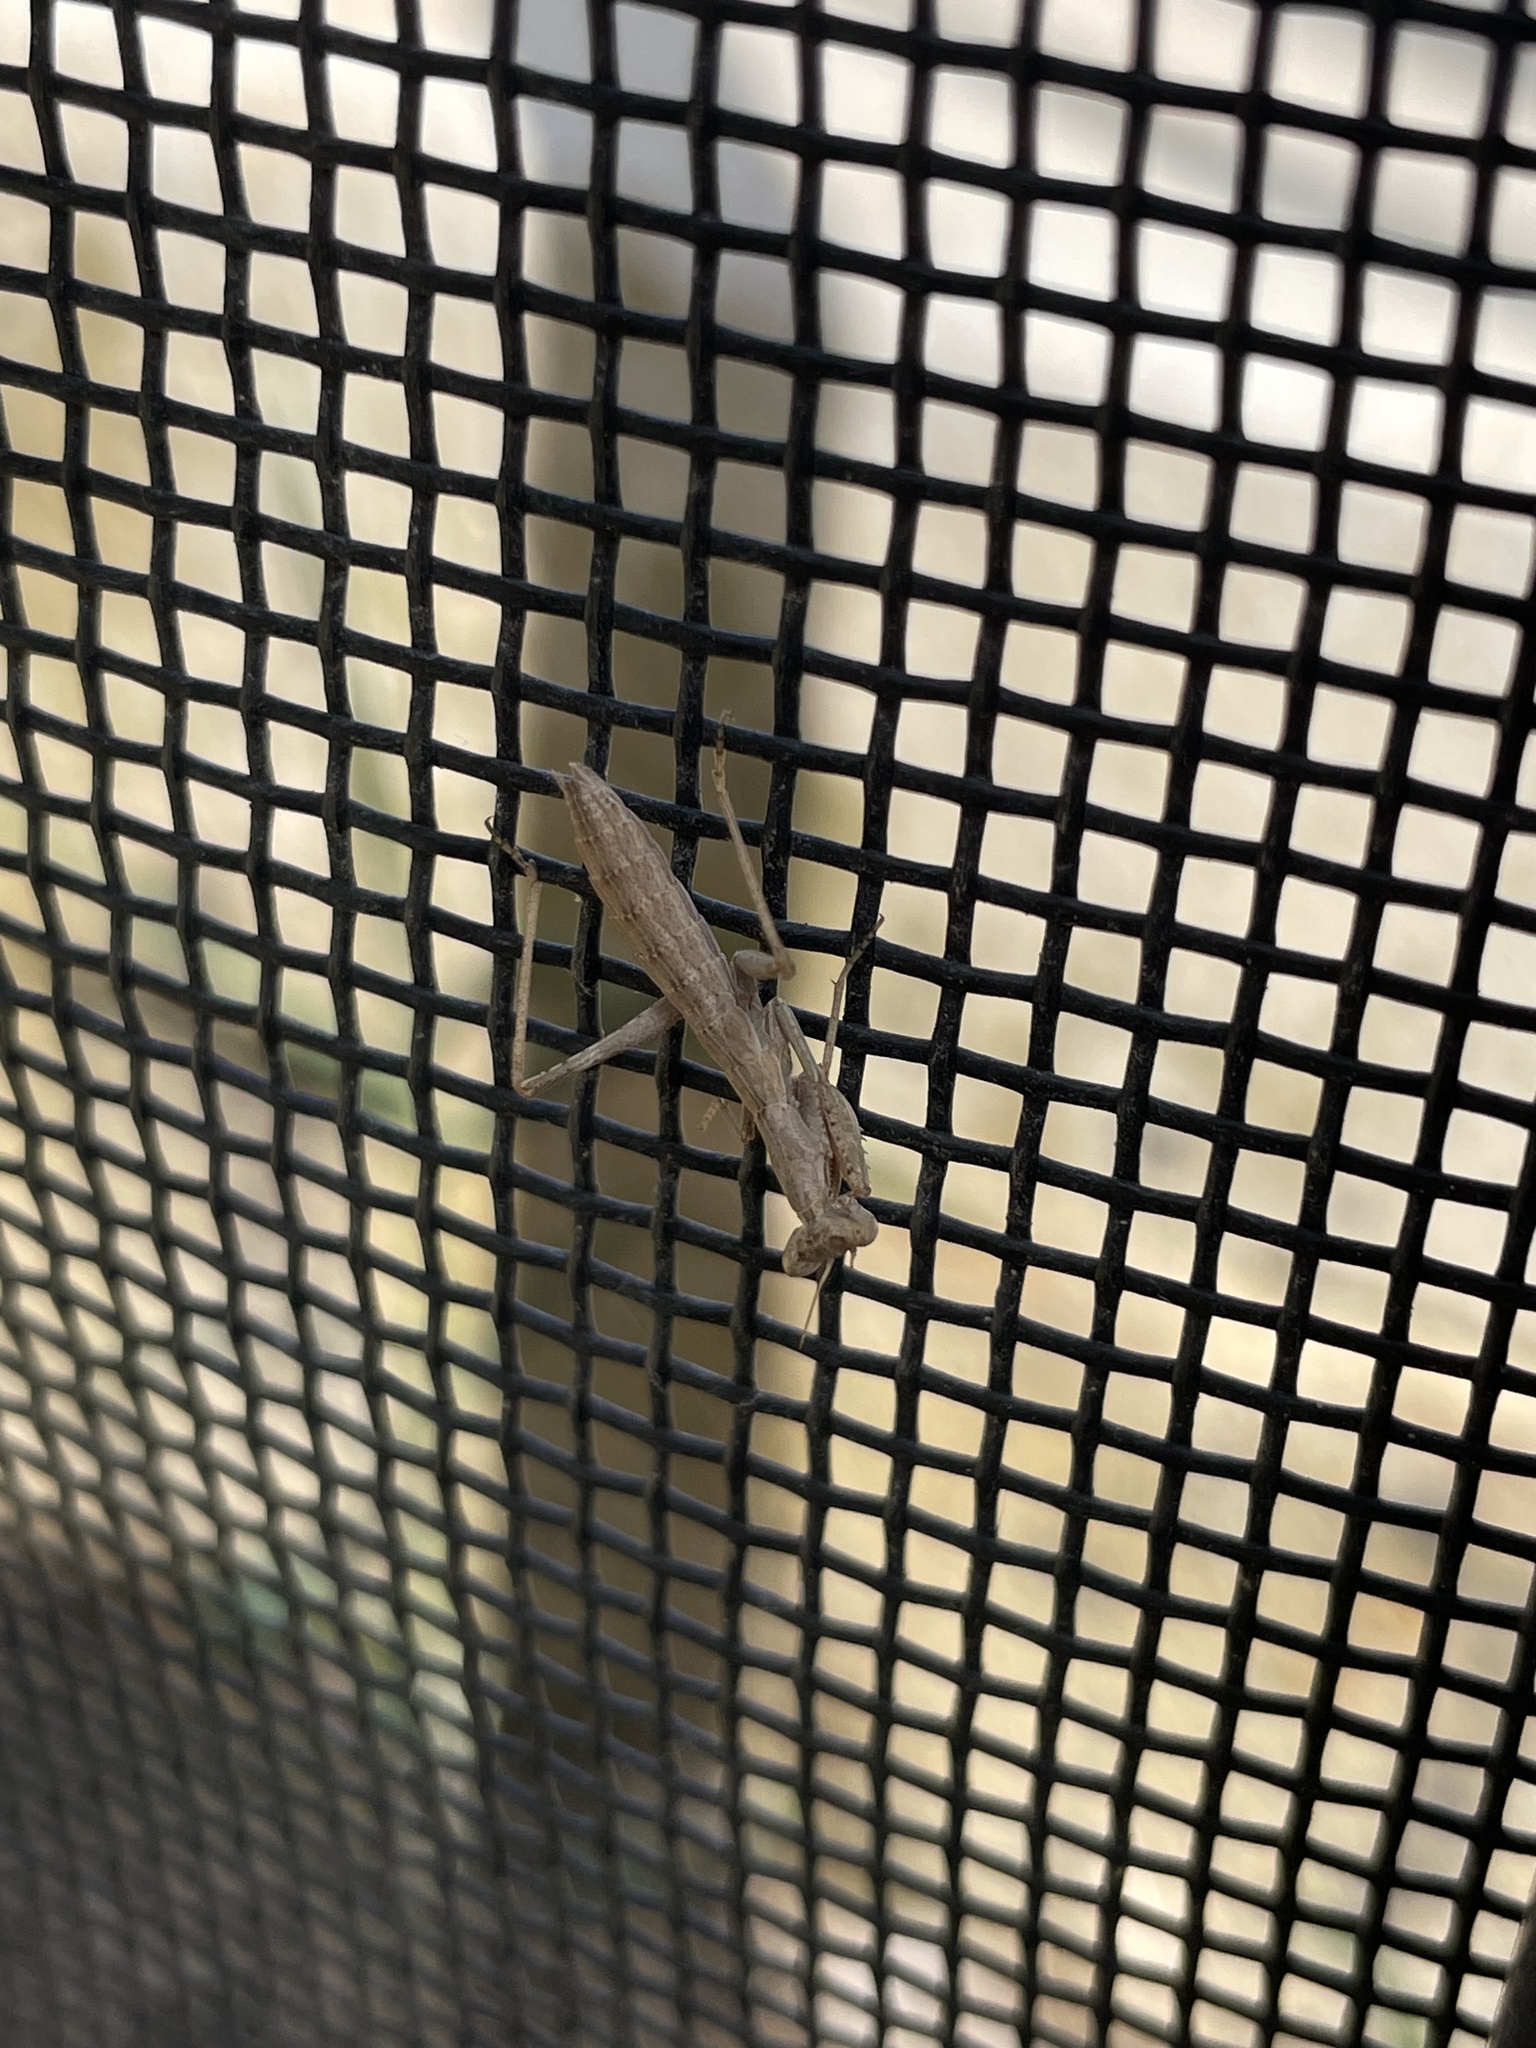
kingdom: Animalia
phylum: Arthropoda
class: Insecta
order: Mantodea
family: Amelidae
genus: Ameles
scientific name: Ameles decolor
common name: Dwarf mantis
